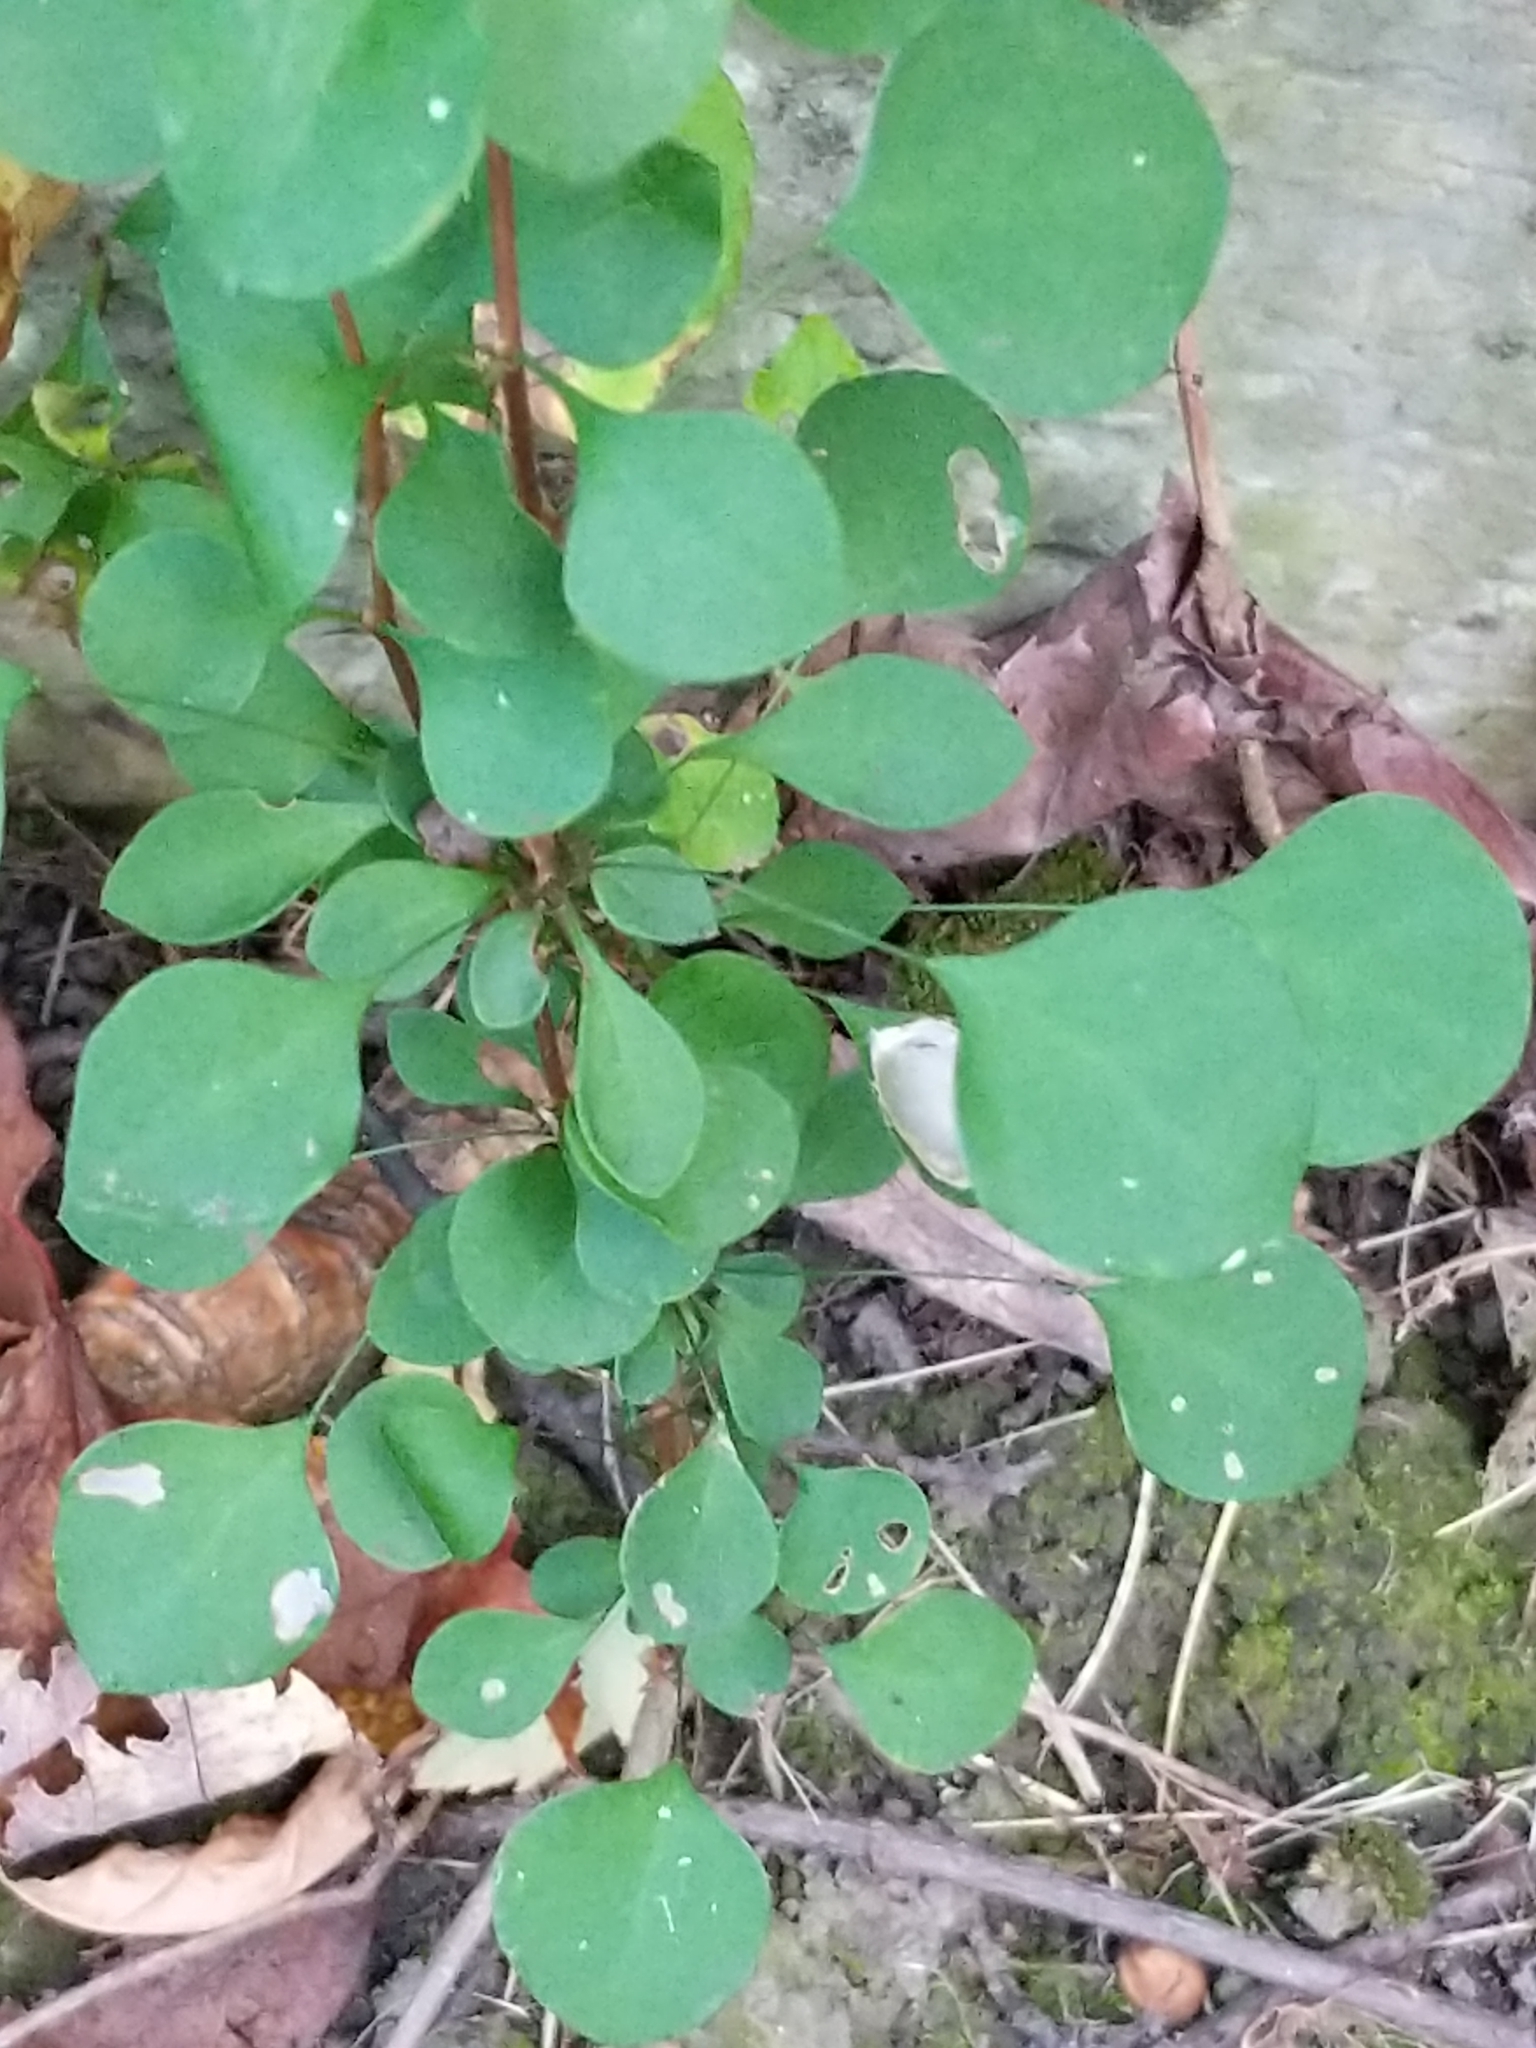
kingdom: Plantae
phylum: Tracheophyta
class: Magnoliopsida
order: Ranunculales
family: Berberidaceae
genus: Berberis
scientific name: Berberis thunbergii
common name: Japanese barberry
